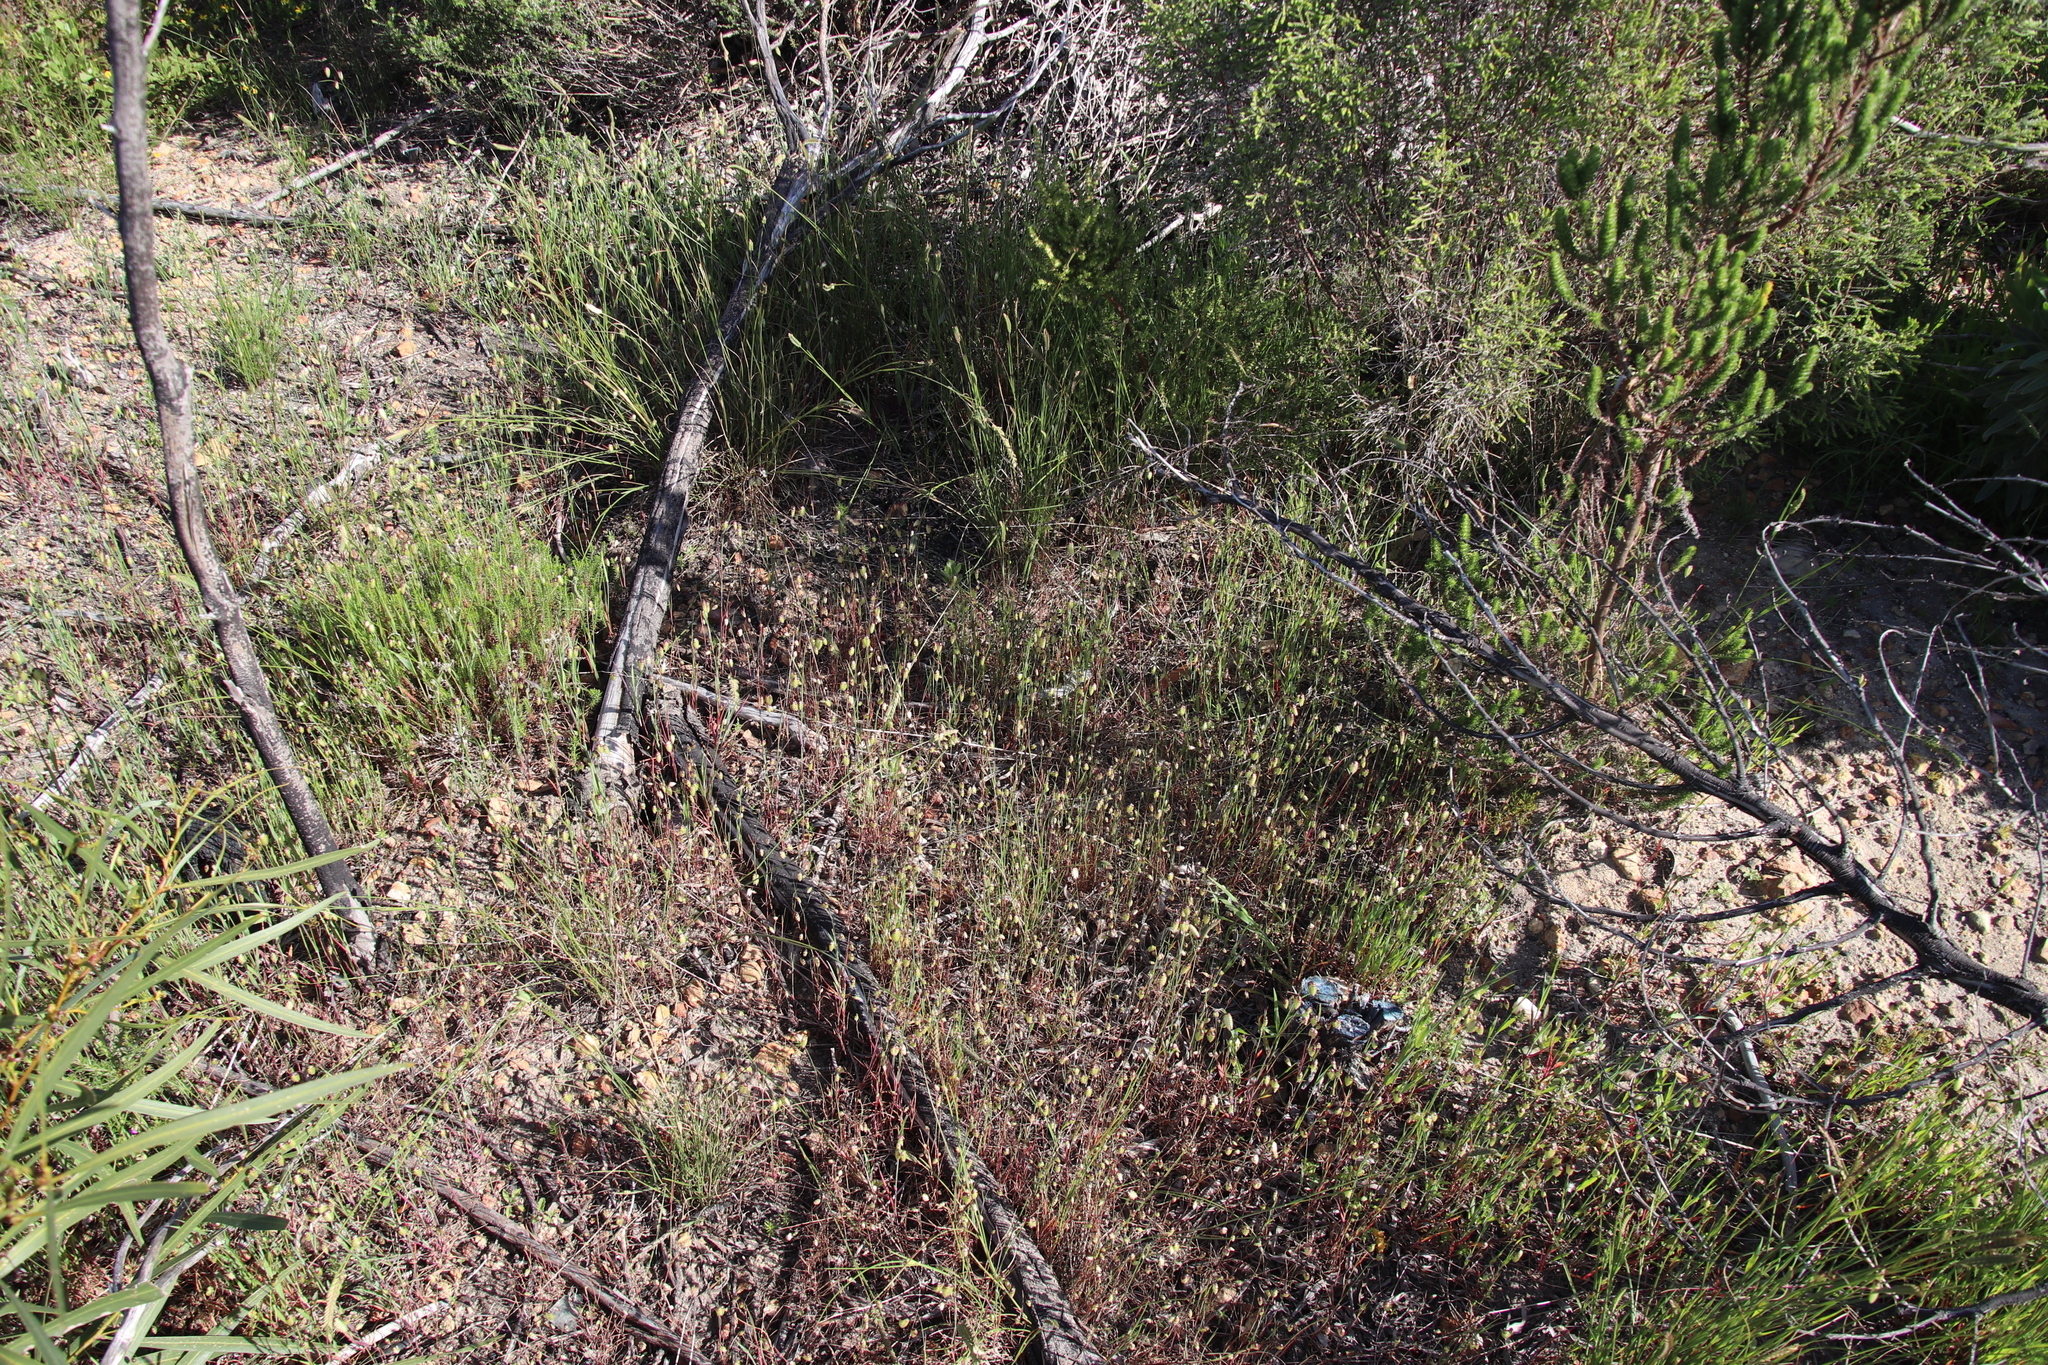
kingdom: Plantae
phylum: Tracheophyta
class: Liliopsida
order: Poales
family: Poaceae
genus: Briza
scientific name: Briza maxima
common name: Big quakinggrass
